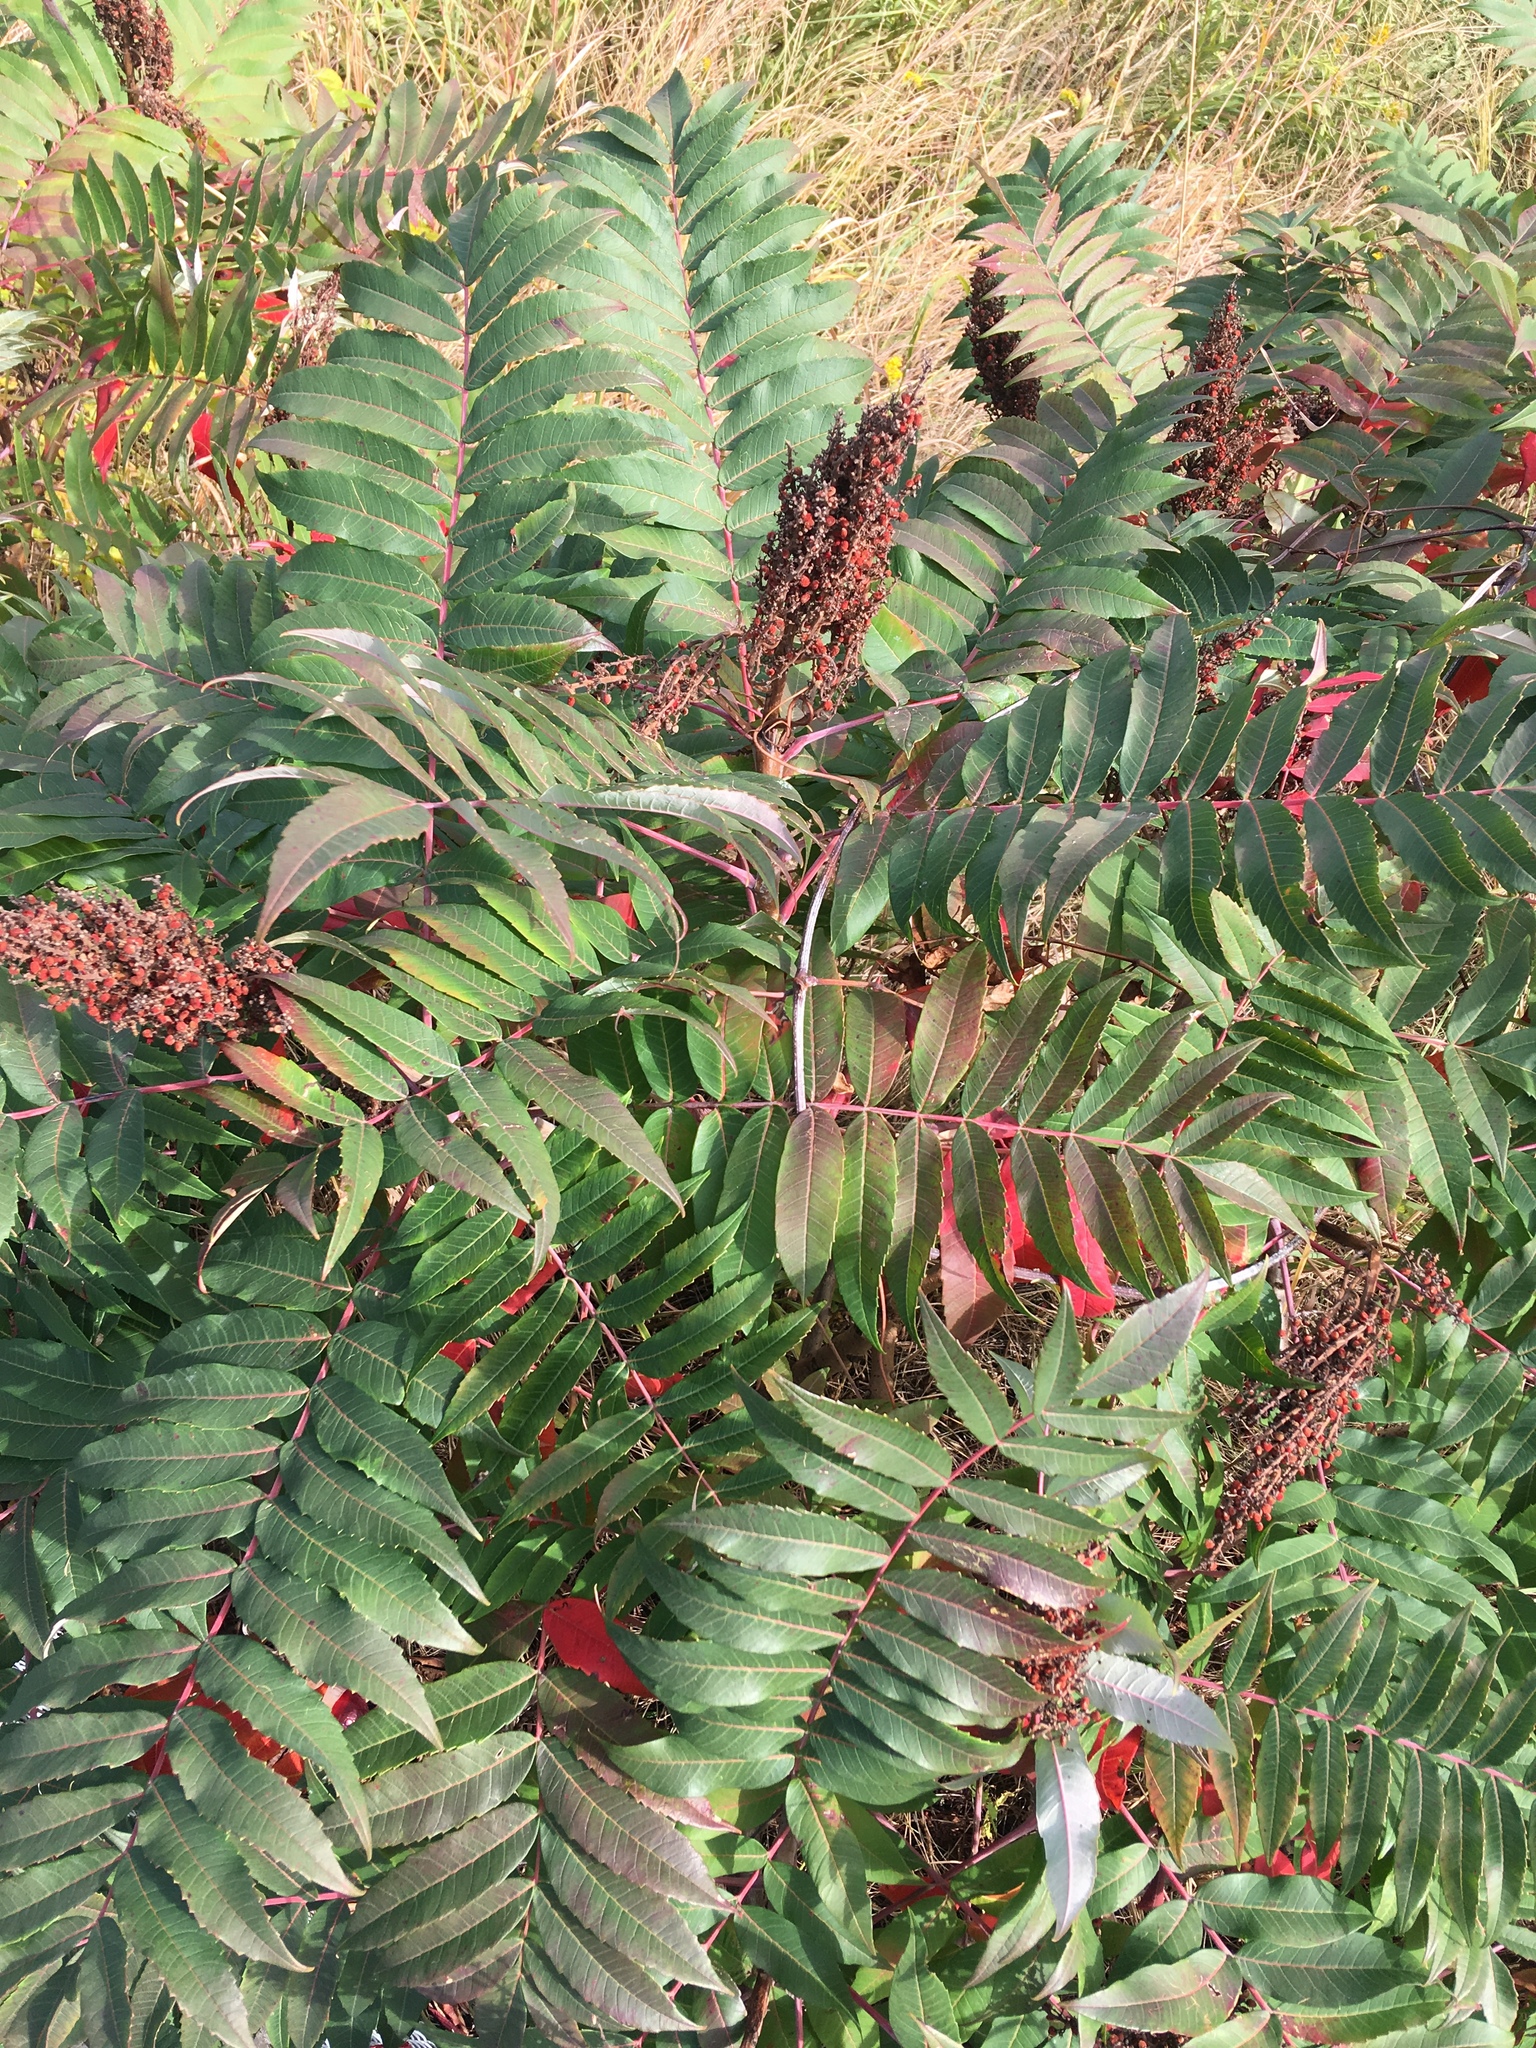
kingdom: Plantae
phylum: Tracheophyta
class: Magnoliopsida
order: Sapindales
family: Anacardiaceae
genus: Rhus
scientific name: Rhus glabra
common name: Scarlet sumac
